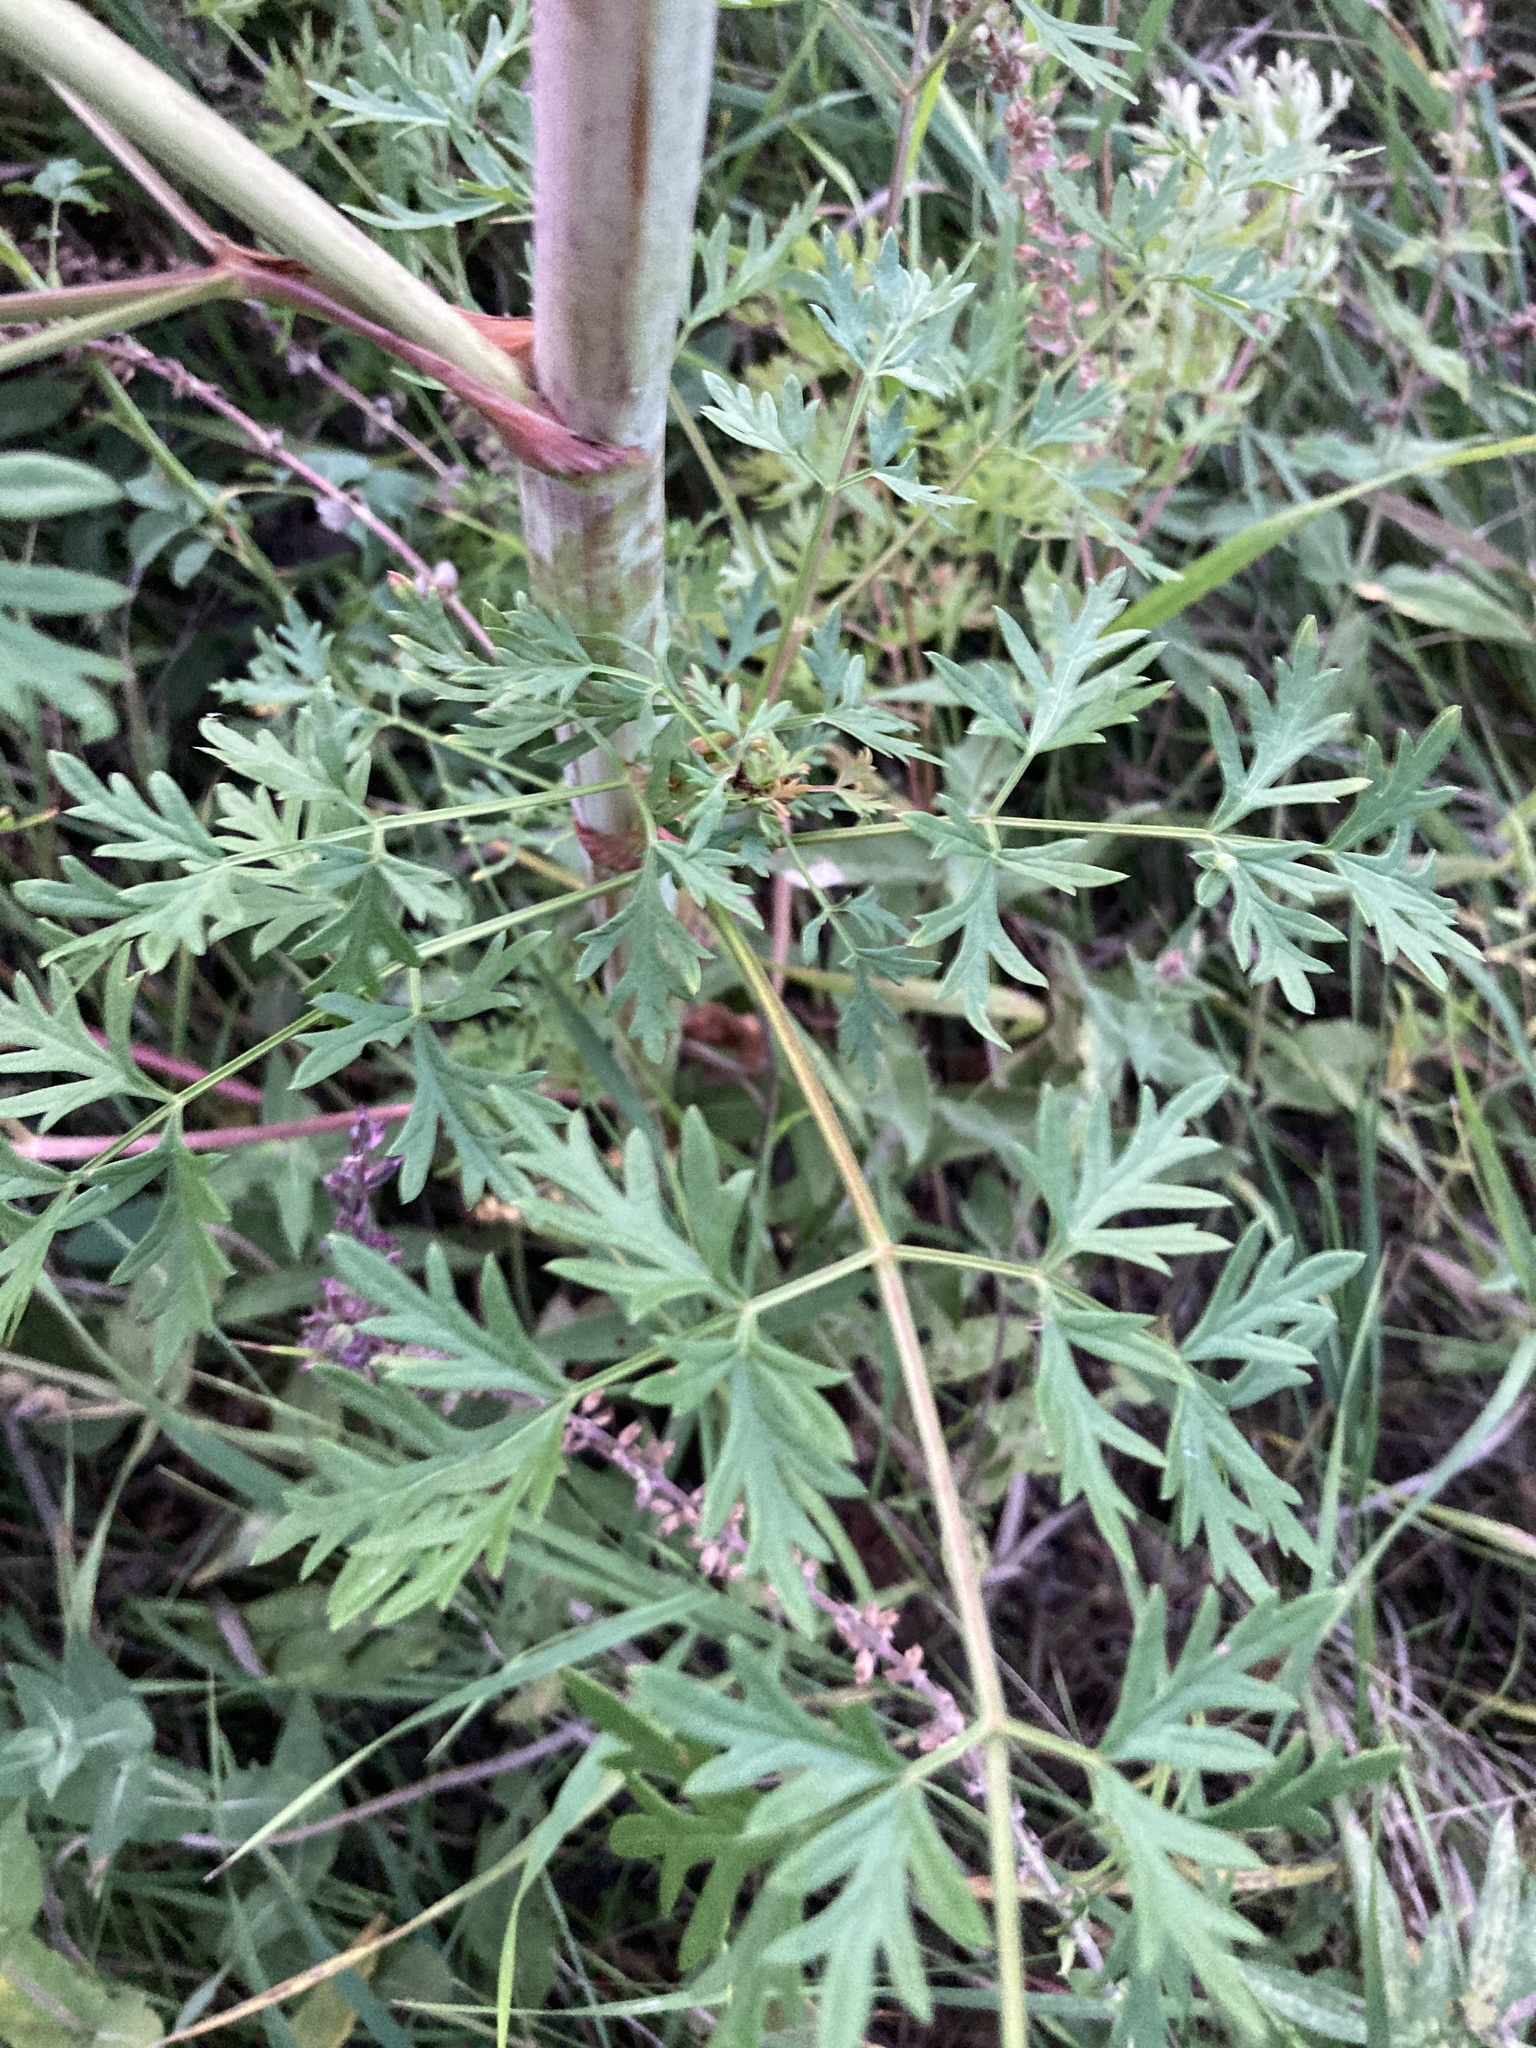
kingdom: Plantae
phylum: Tracheophyta
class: Magnoliopsida
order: Apiales
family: Apiaceae
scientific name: Apiaceae
